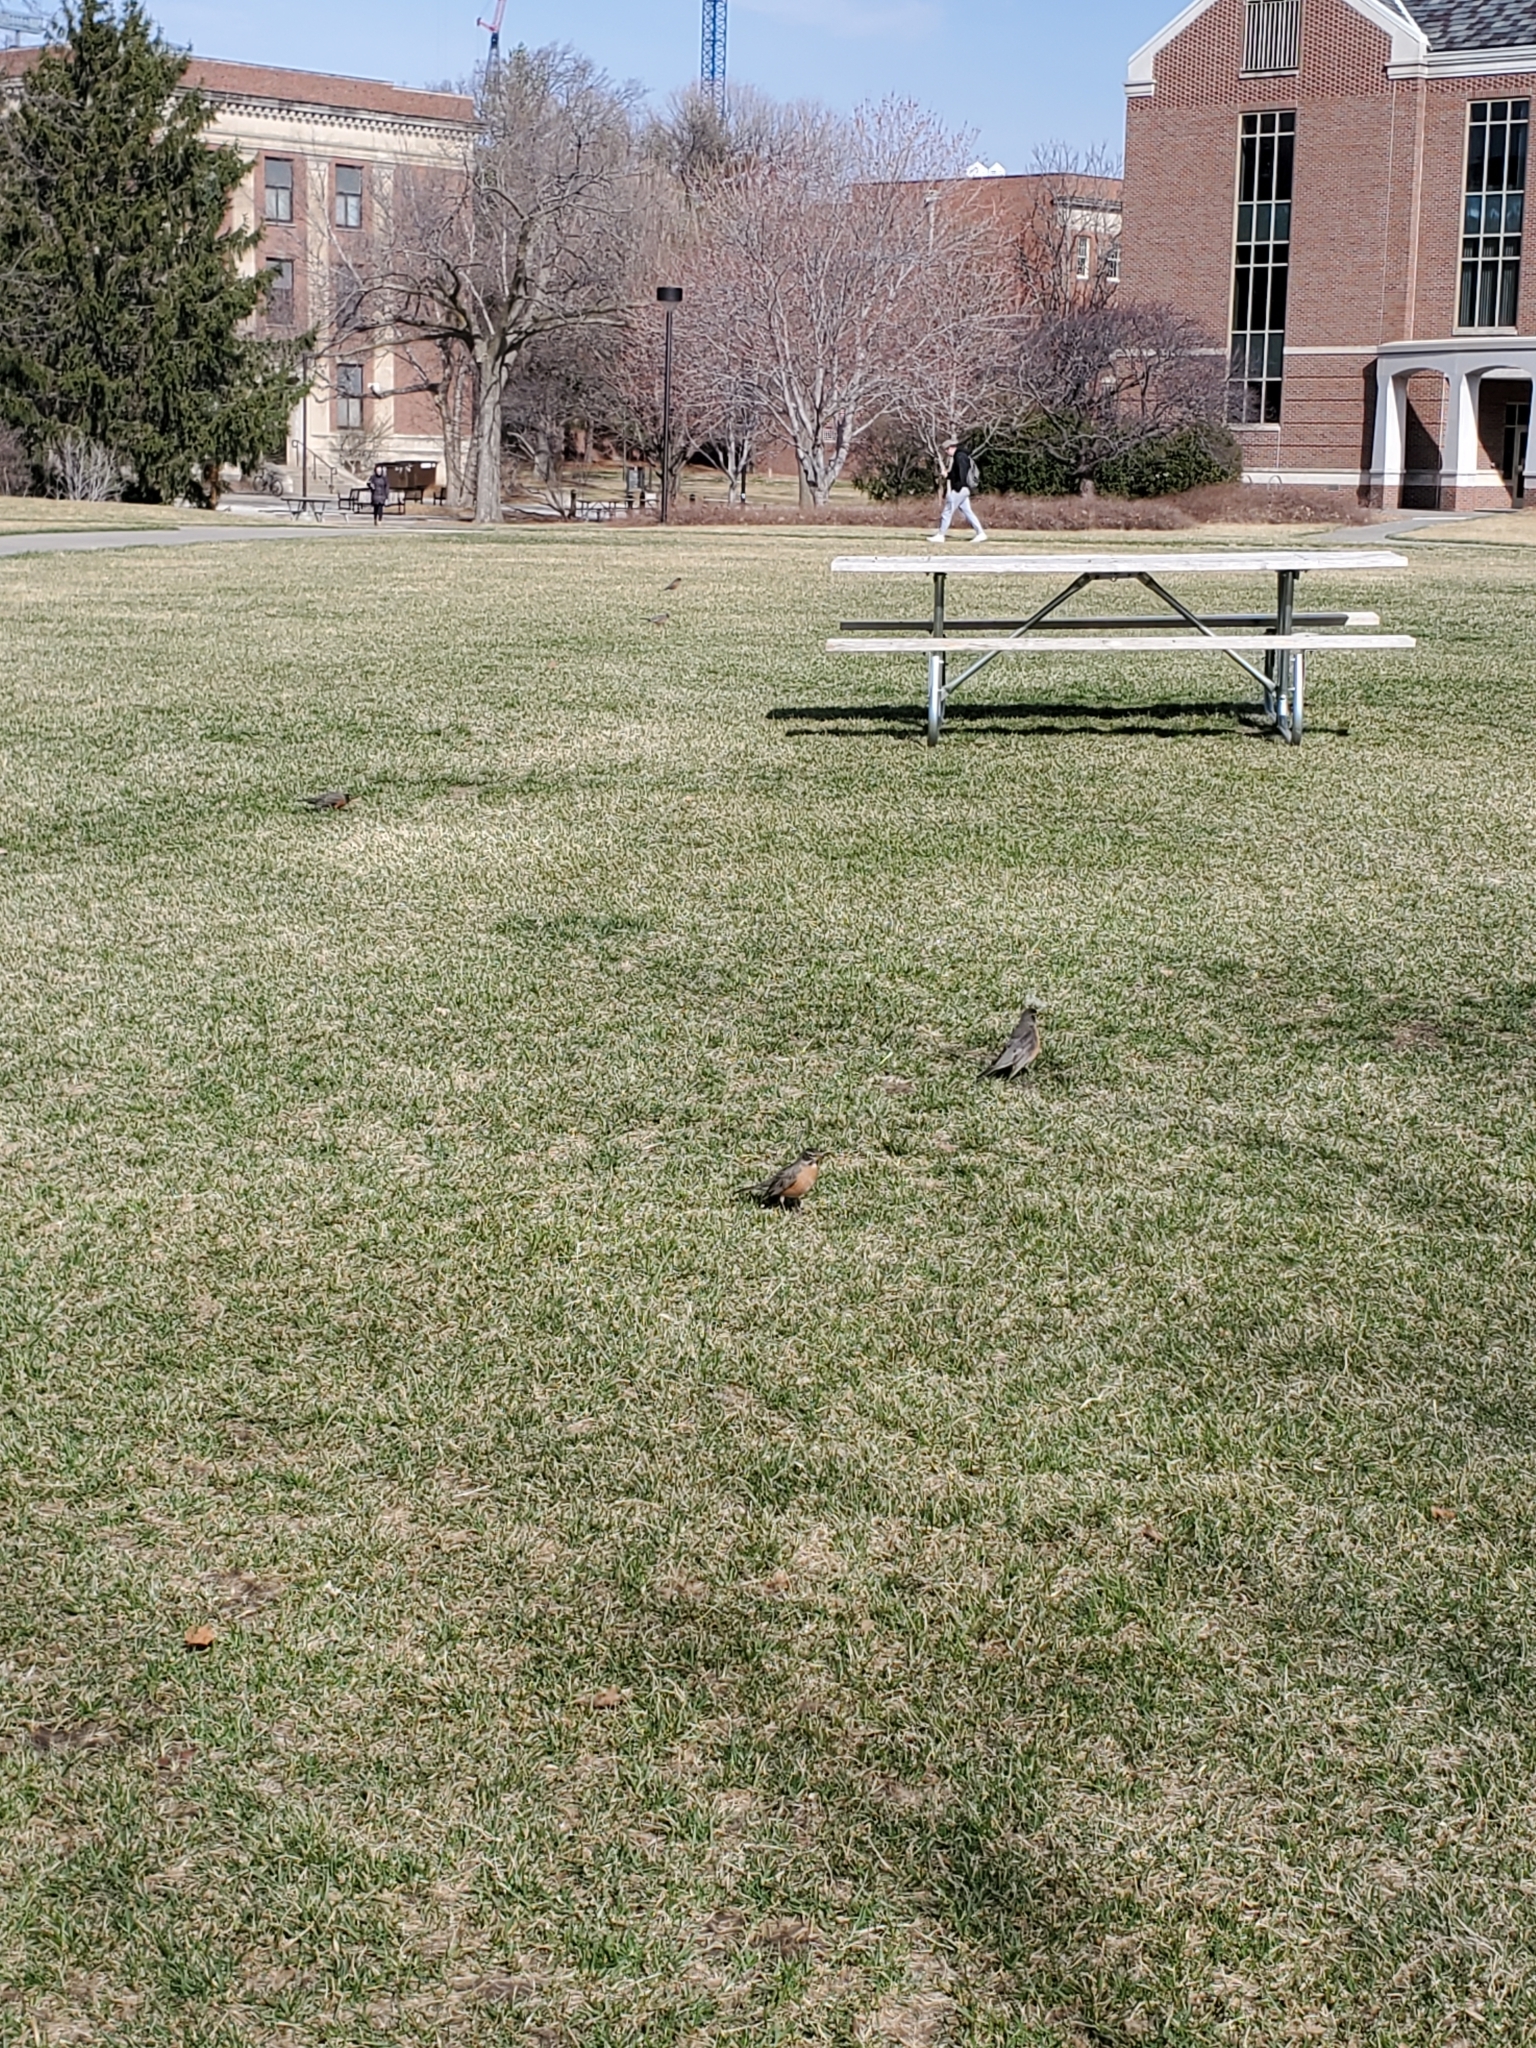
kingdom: Animalia
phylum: Chordata
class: Aves
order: Passeriformes
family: Turdidae
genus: Turdus
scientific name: Turdus migratorius
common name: American robin
